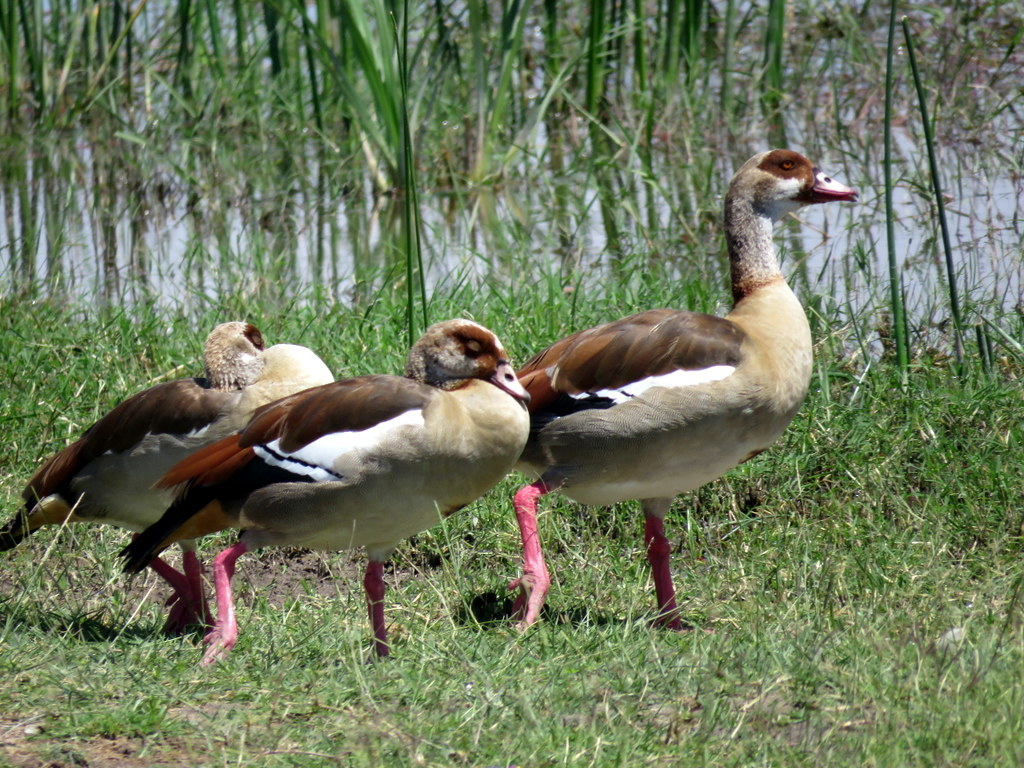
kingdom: Animalia
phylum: Chordata
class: Aves
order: Anseriformes
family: Anatidae
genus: Alopochen
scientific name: Alopochen aegyptiaca
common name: Egyptian goose
